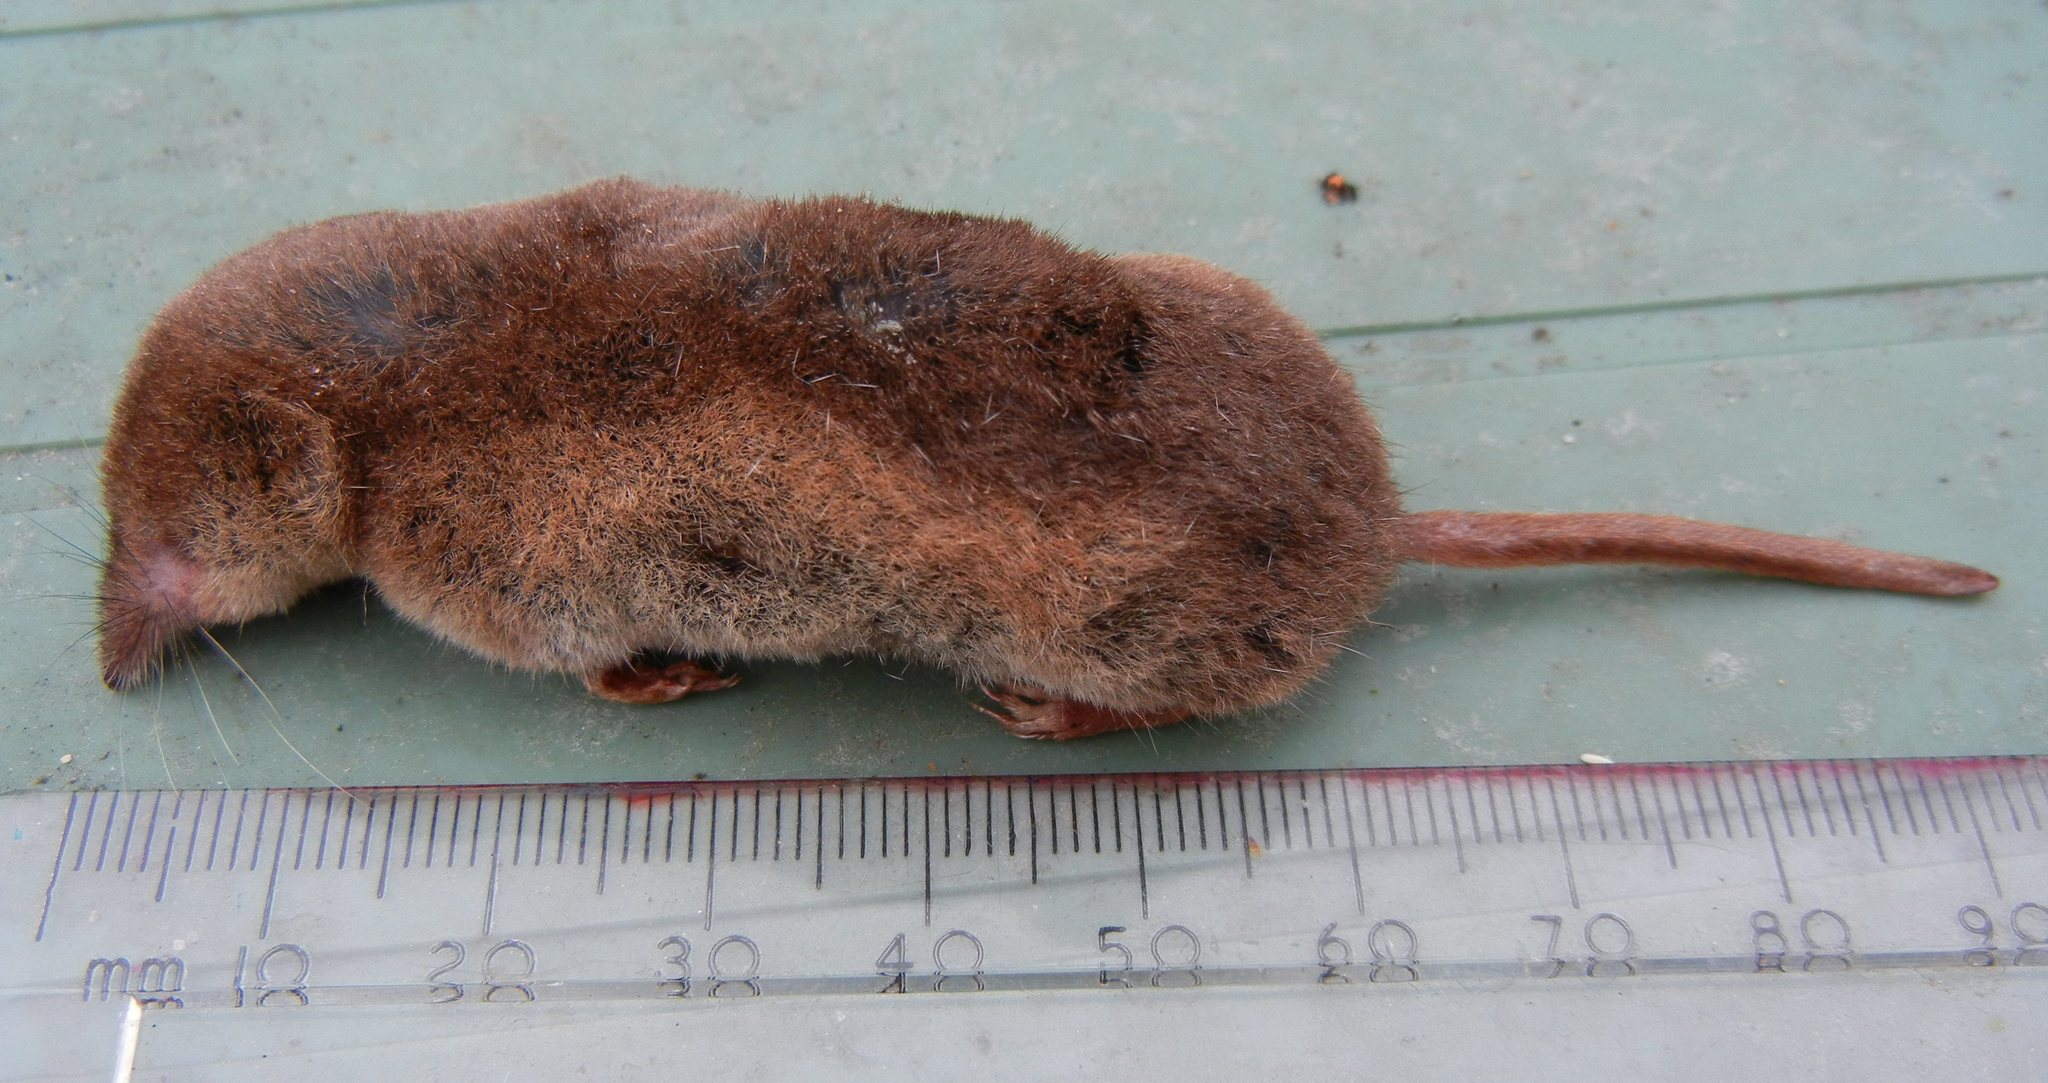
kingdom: Animalia
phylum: Chordata
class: Mammalia
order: Soricomorpha
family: Soricidae
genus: Sorex
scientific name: Sorex araneus
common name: Common shrew
